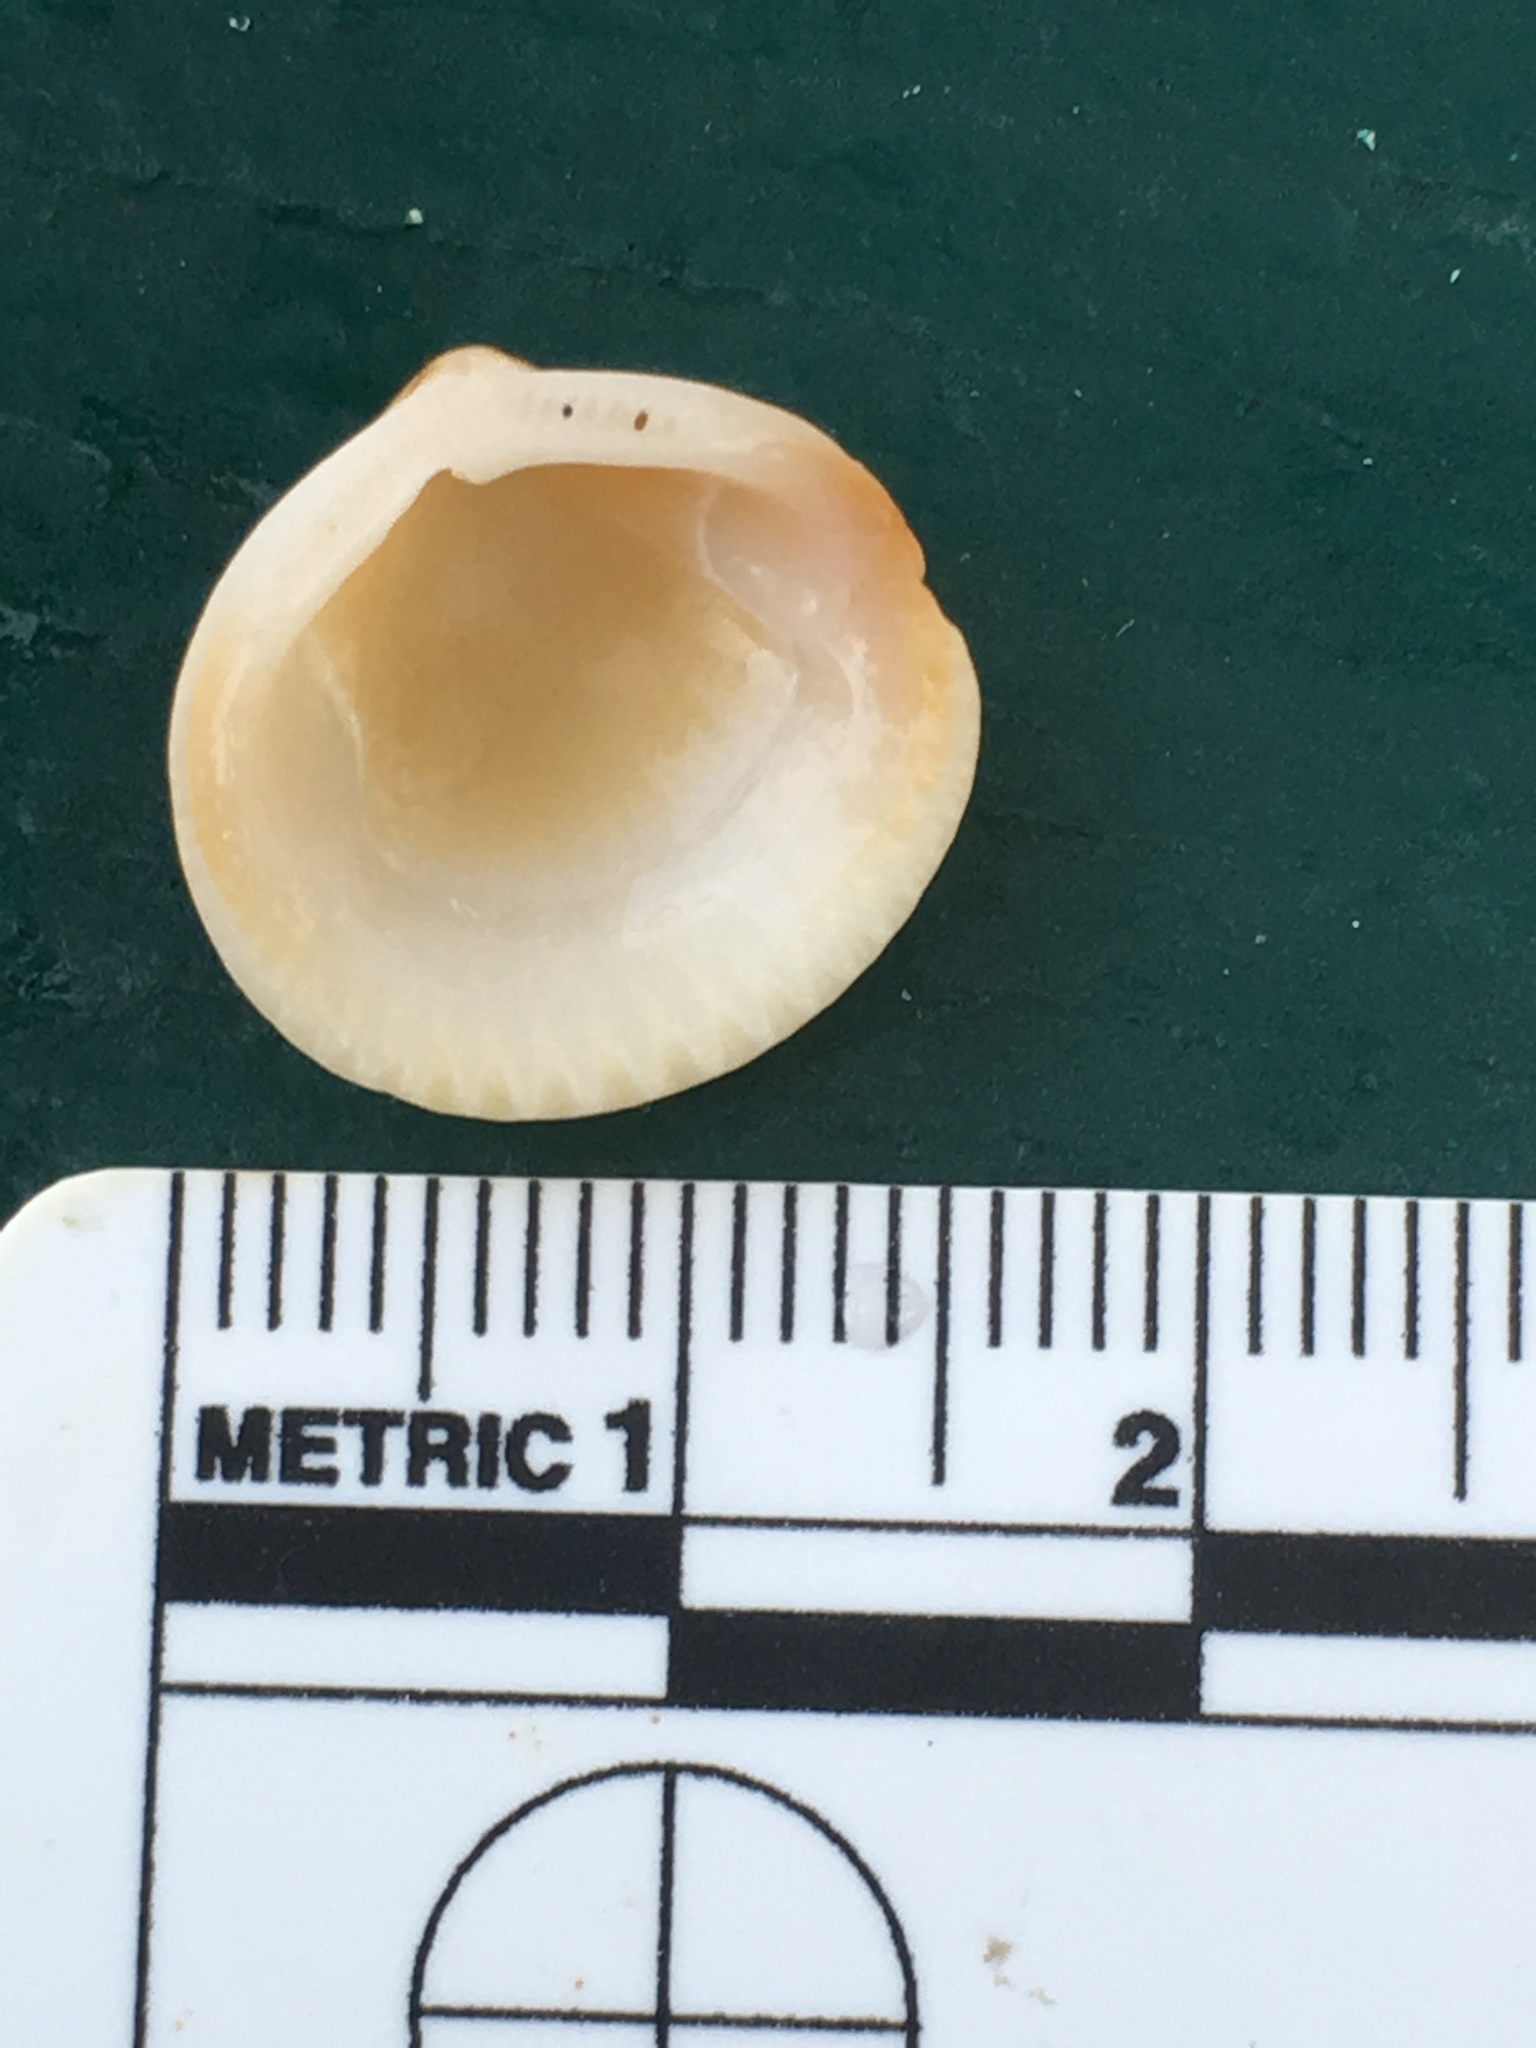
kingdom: Animalia
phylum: Mollusca
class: Bivalvia
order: Arcida
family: Glycymerididae
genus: Glycymeris
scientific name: Glycymeris spectralis
